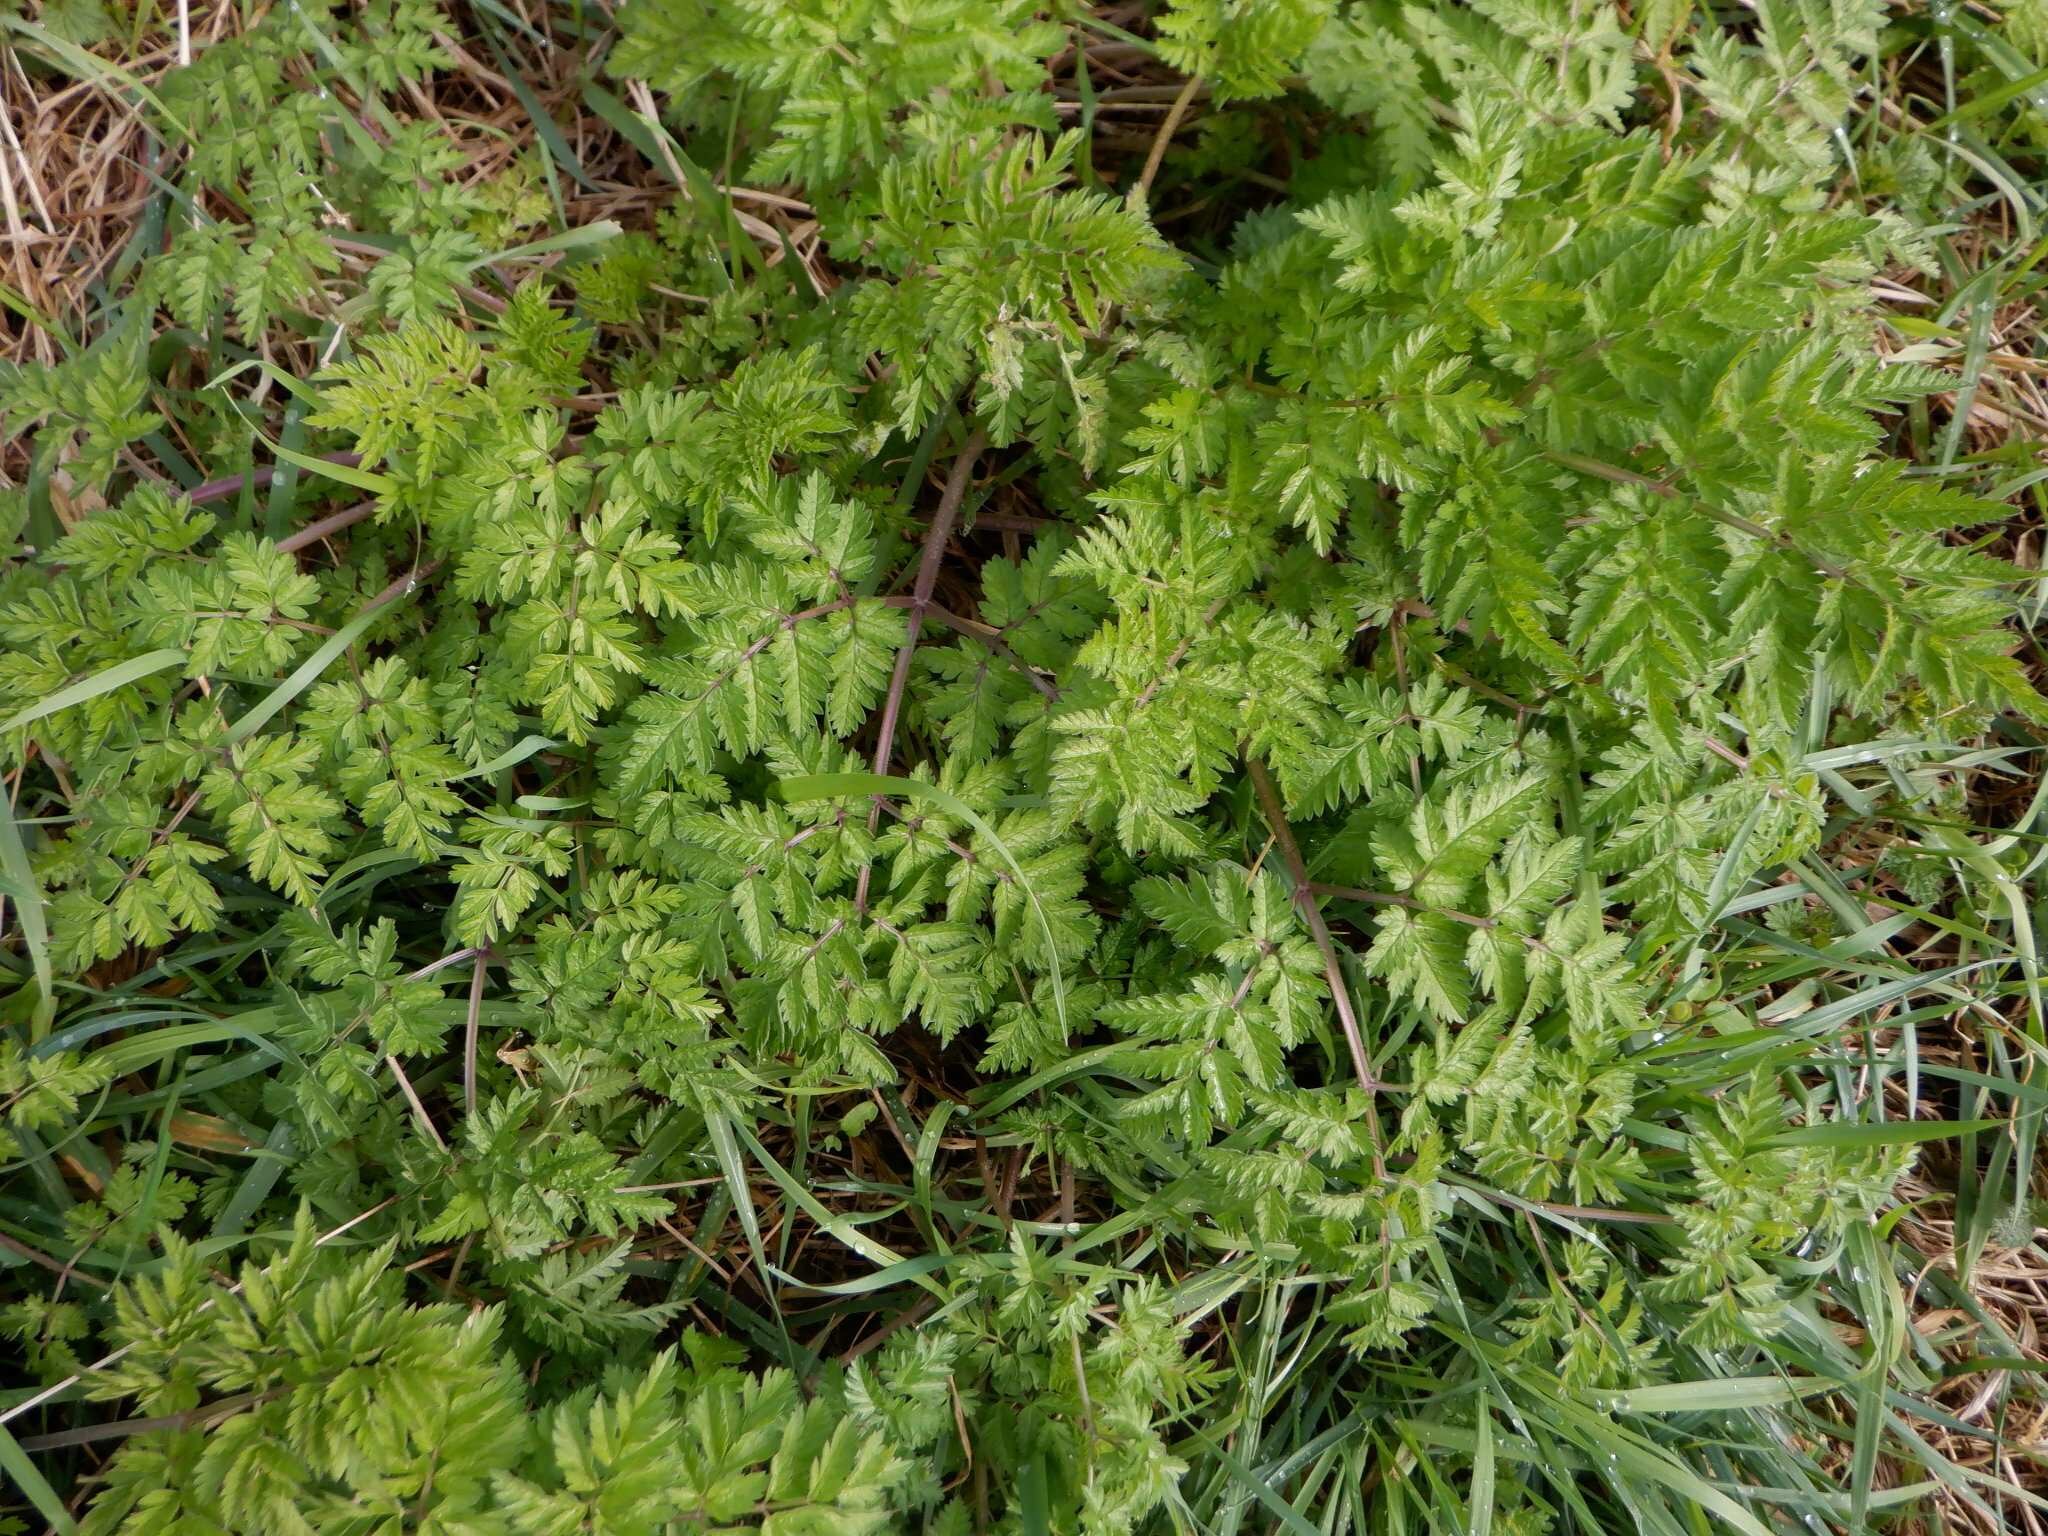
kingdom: Plantae
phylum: Tracheophyta
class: Magnoliopsida
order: Apiales
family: Apiaceae
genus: Anthriscus
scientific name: Anthriscus sylvestris
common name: Cow parsley
